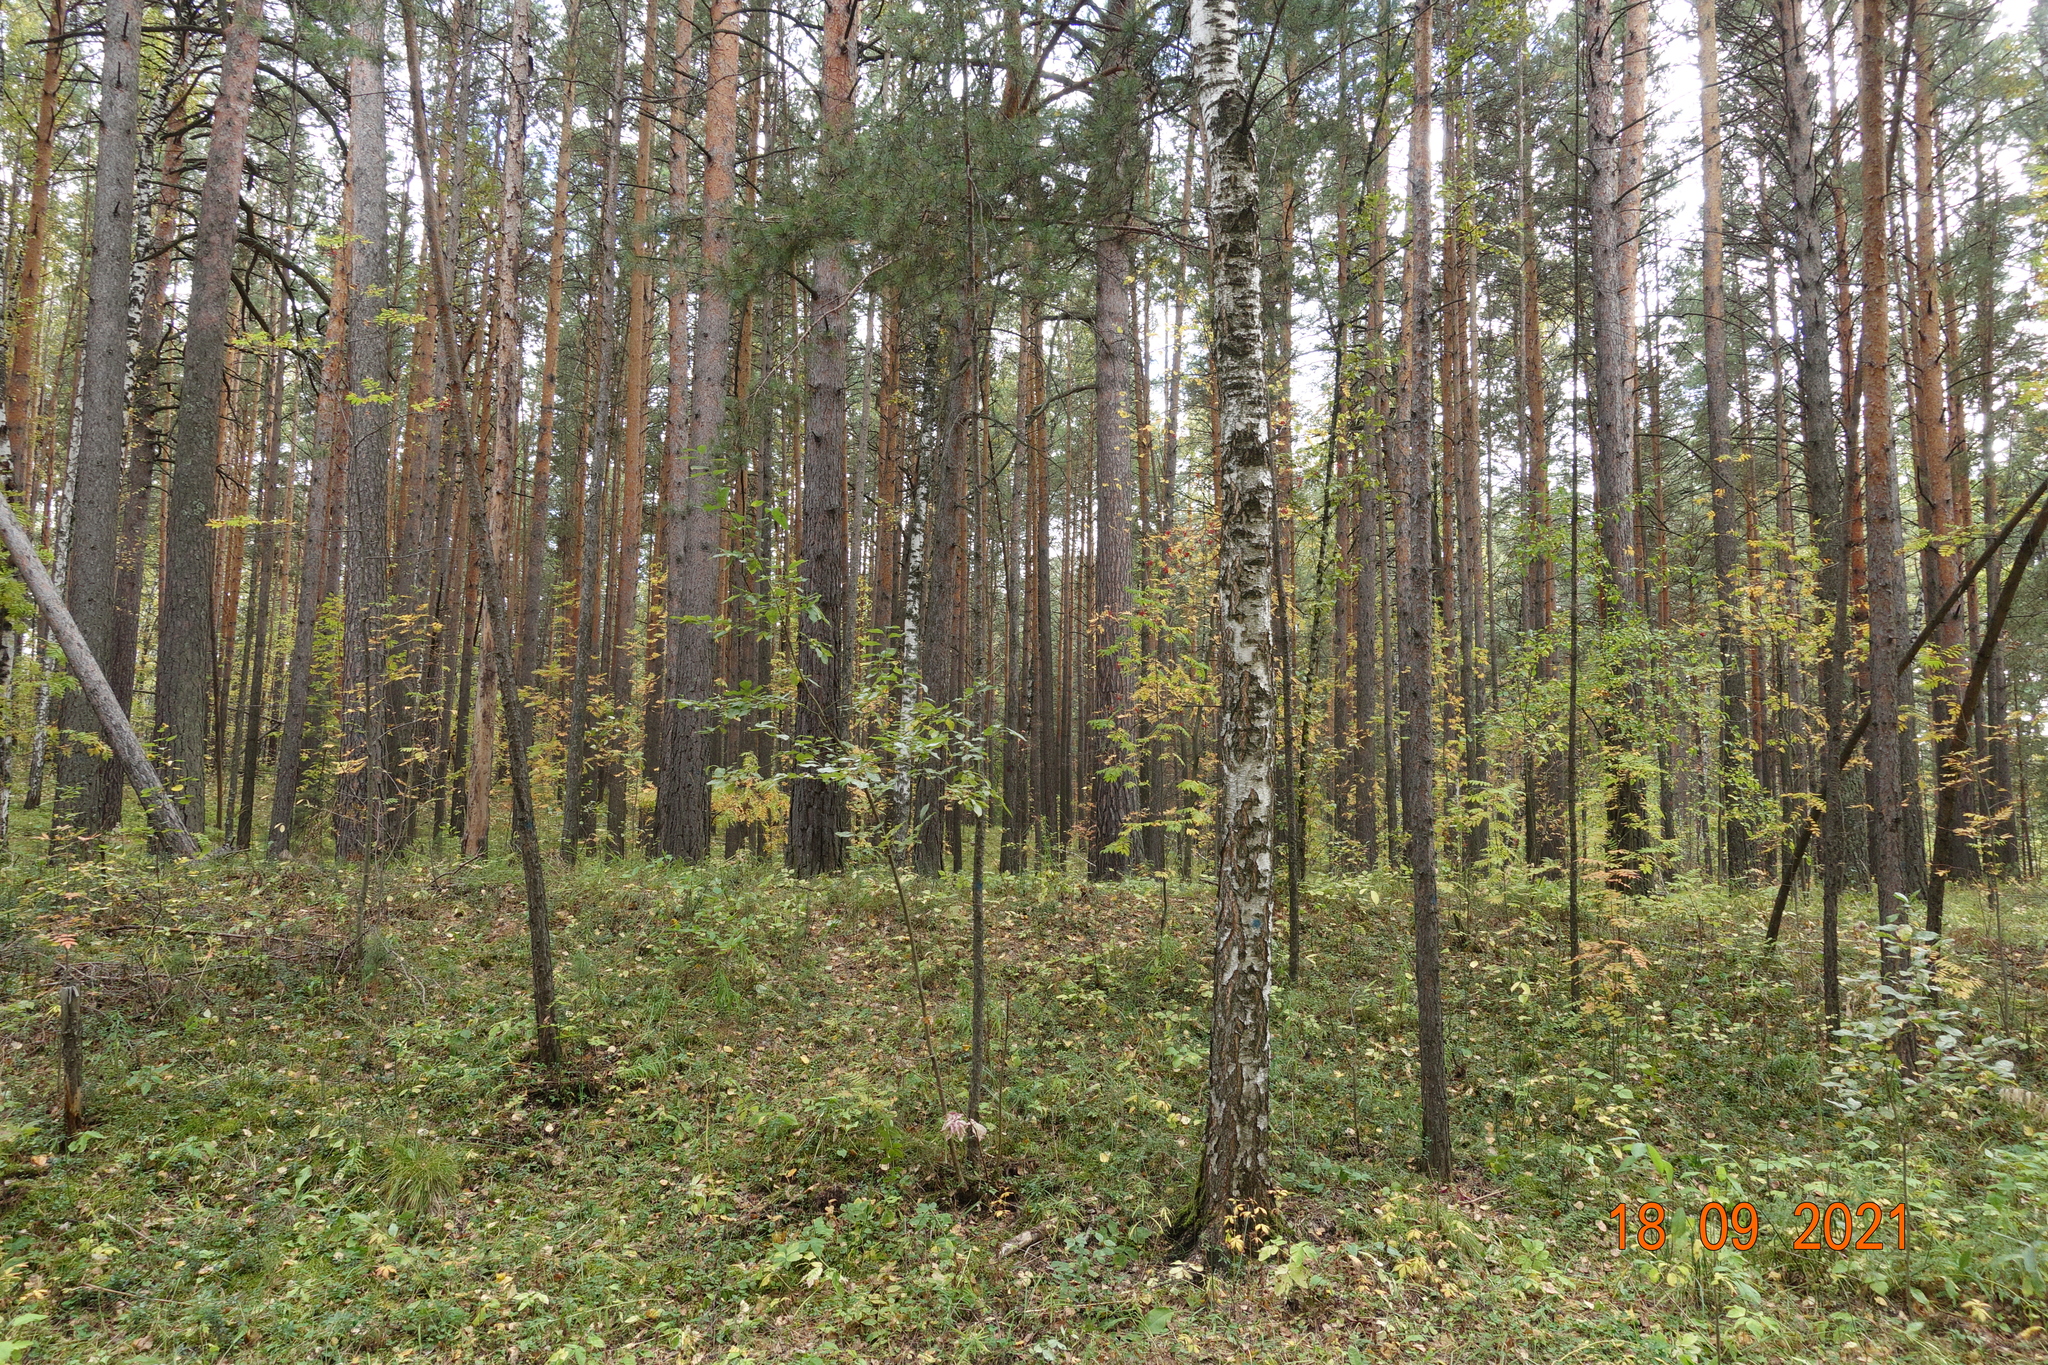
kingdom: Plantae
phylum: Tracheophyta
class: Pinopsida
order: Pinales
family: Pinaceae
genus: Pinus
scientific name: Pinus sylvestris
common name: Scots pine
